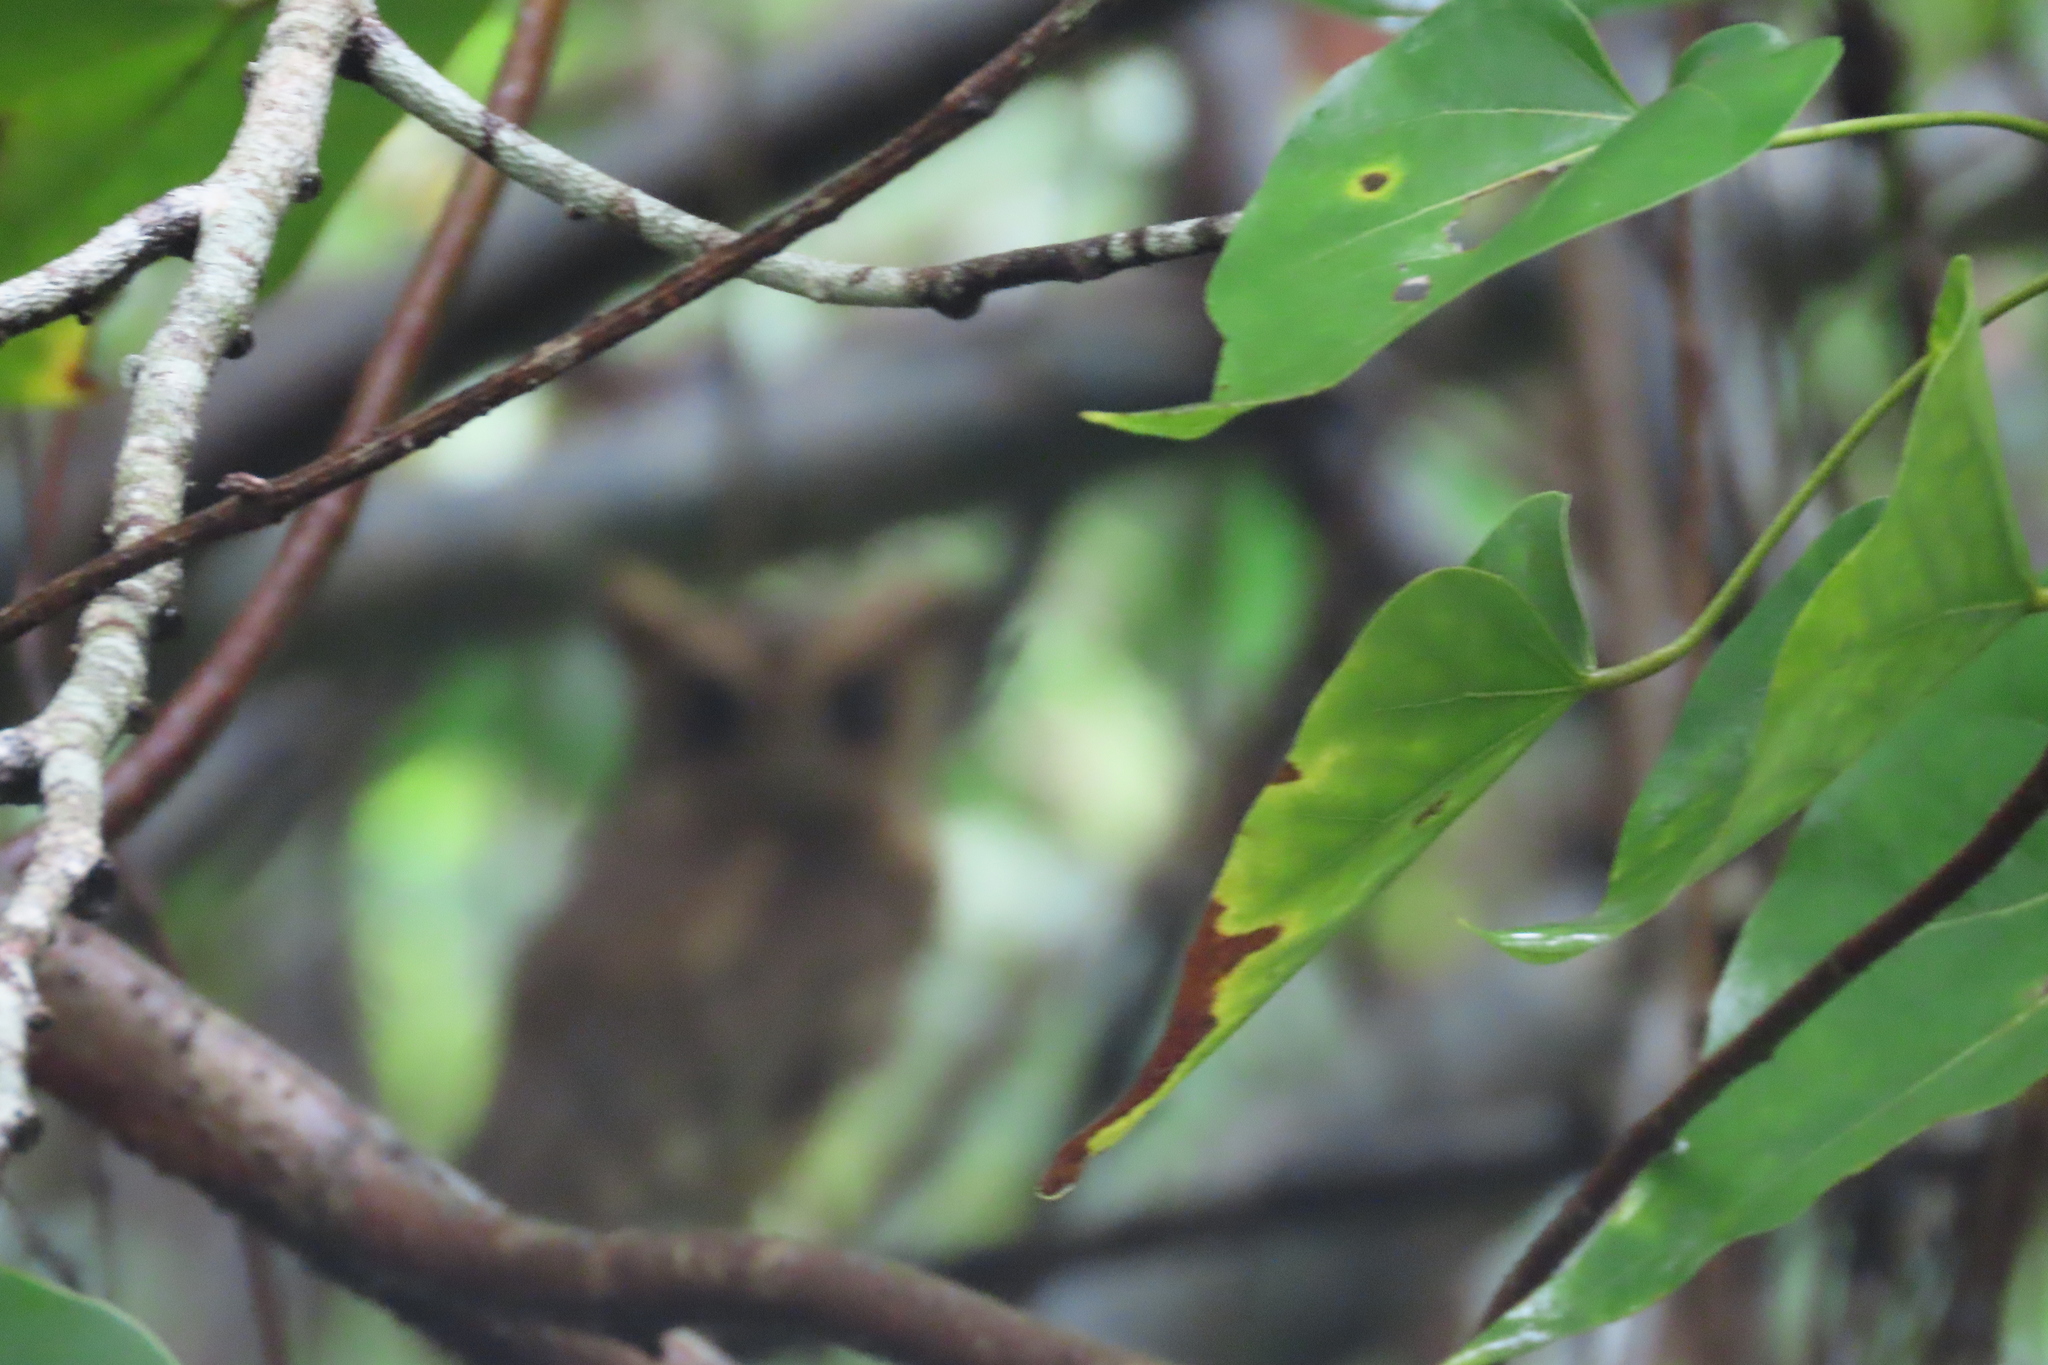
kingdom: Animalia
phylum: Chordata
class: Aves
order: Strigiformes
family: Strigidae
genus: Otus
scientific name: Otus bakkamoena
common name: Indian scops owl
